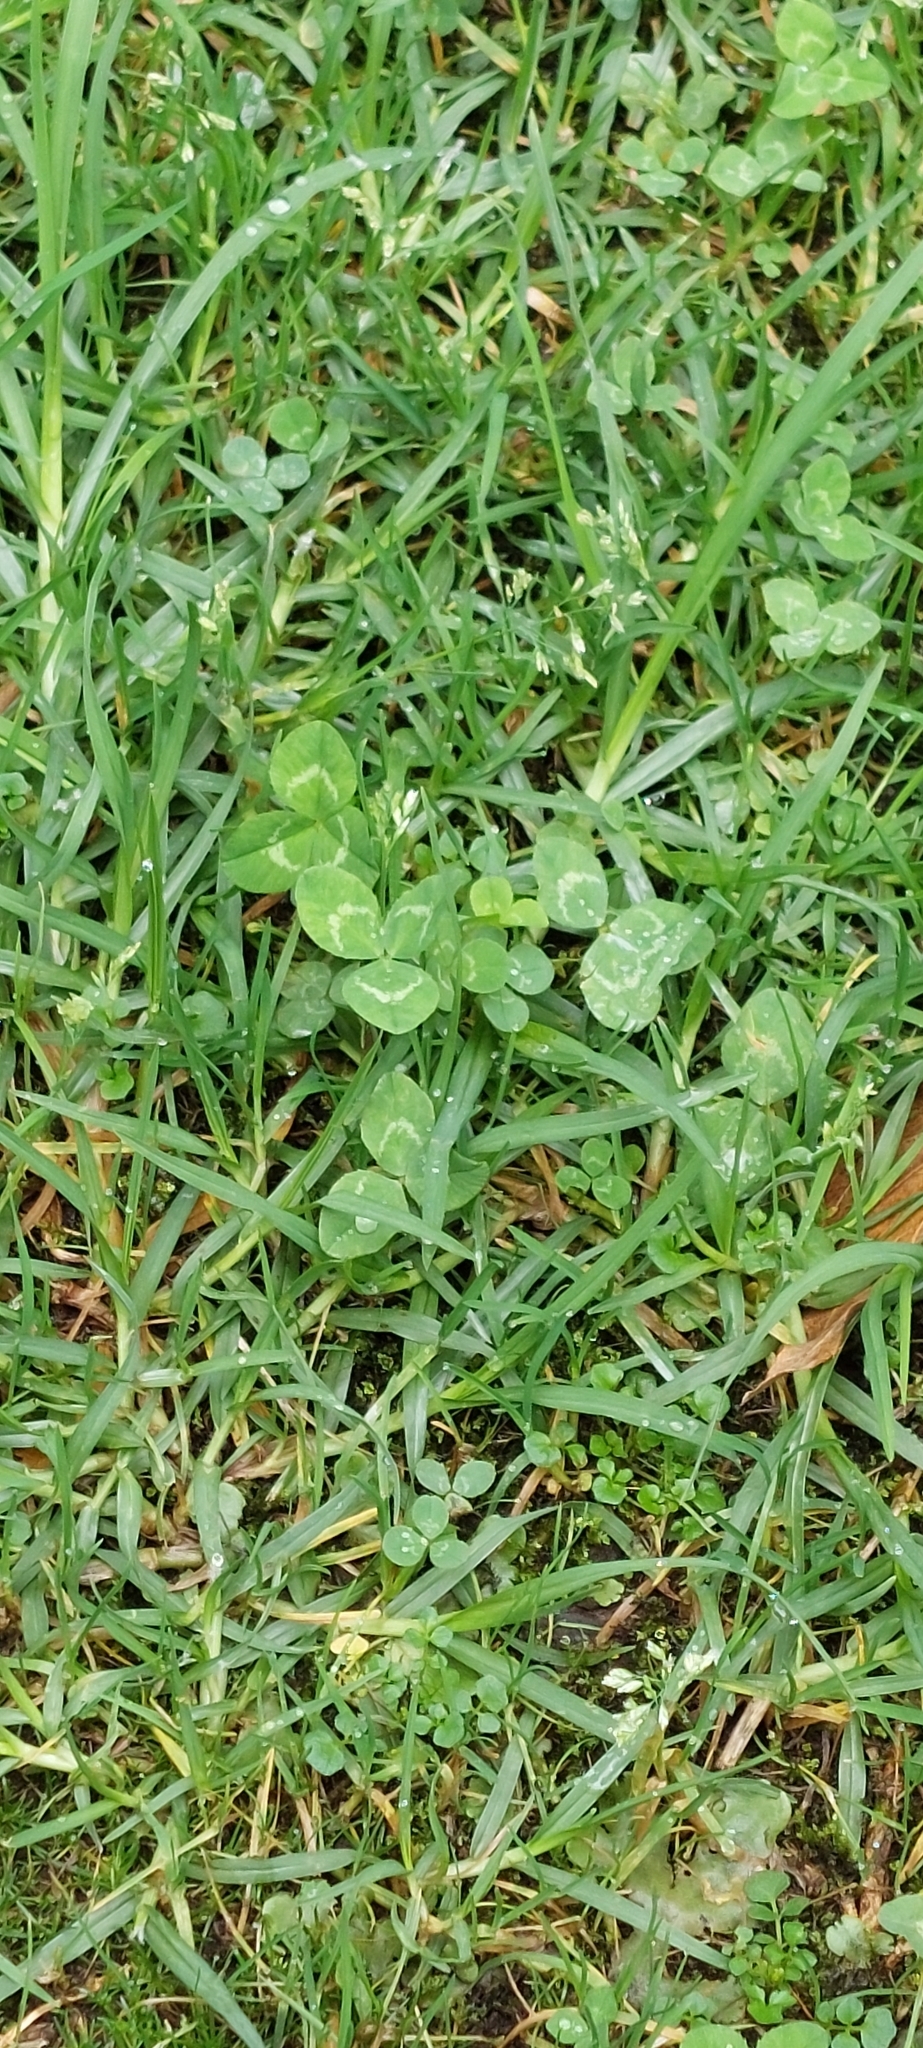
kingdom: Plantae
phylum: Tracheophyta
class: Magnoliopsida
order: Fabales
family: Fabaceae
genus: Trifolium
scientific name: Trifolium repens
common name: White clover
